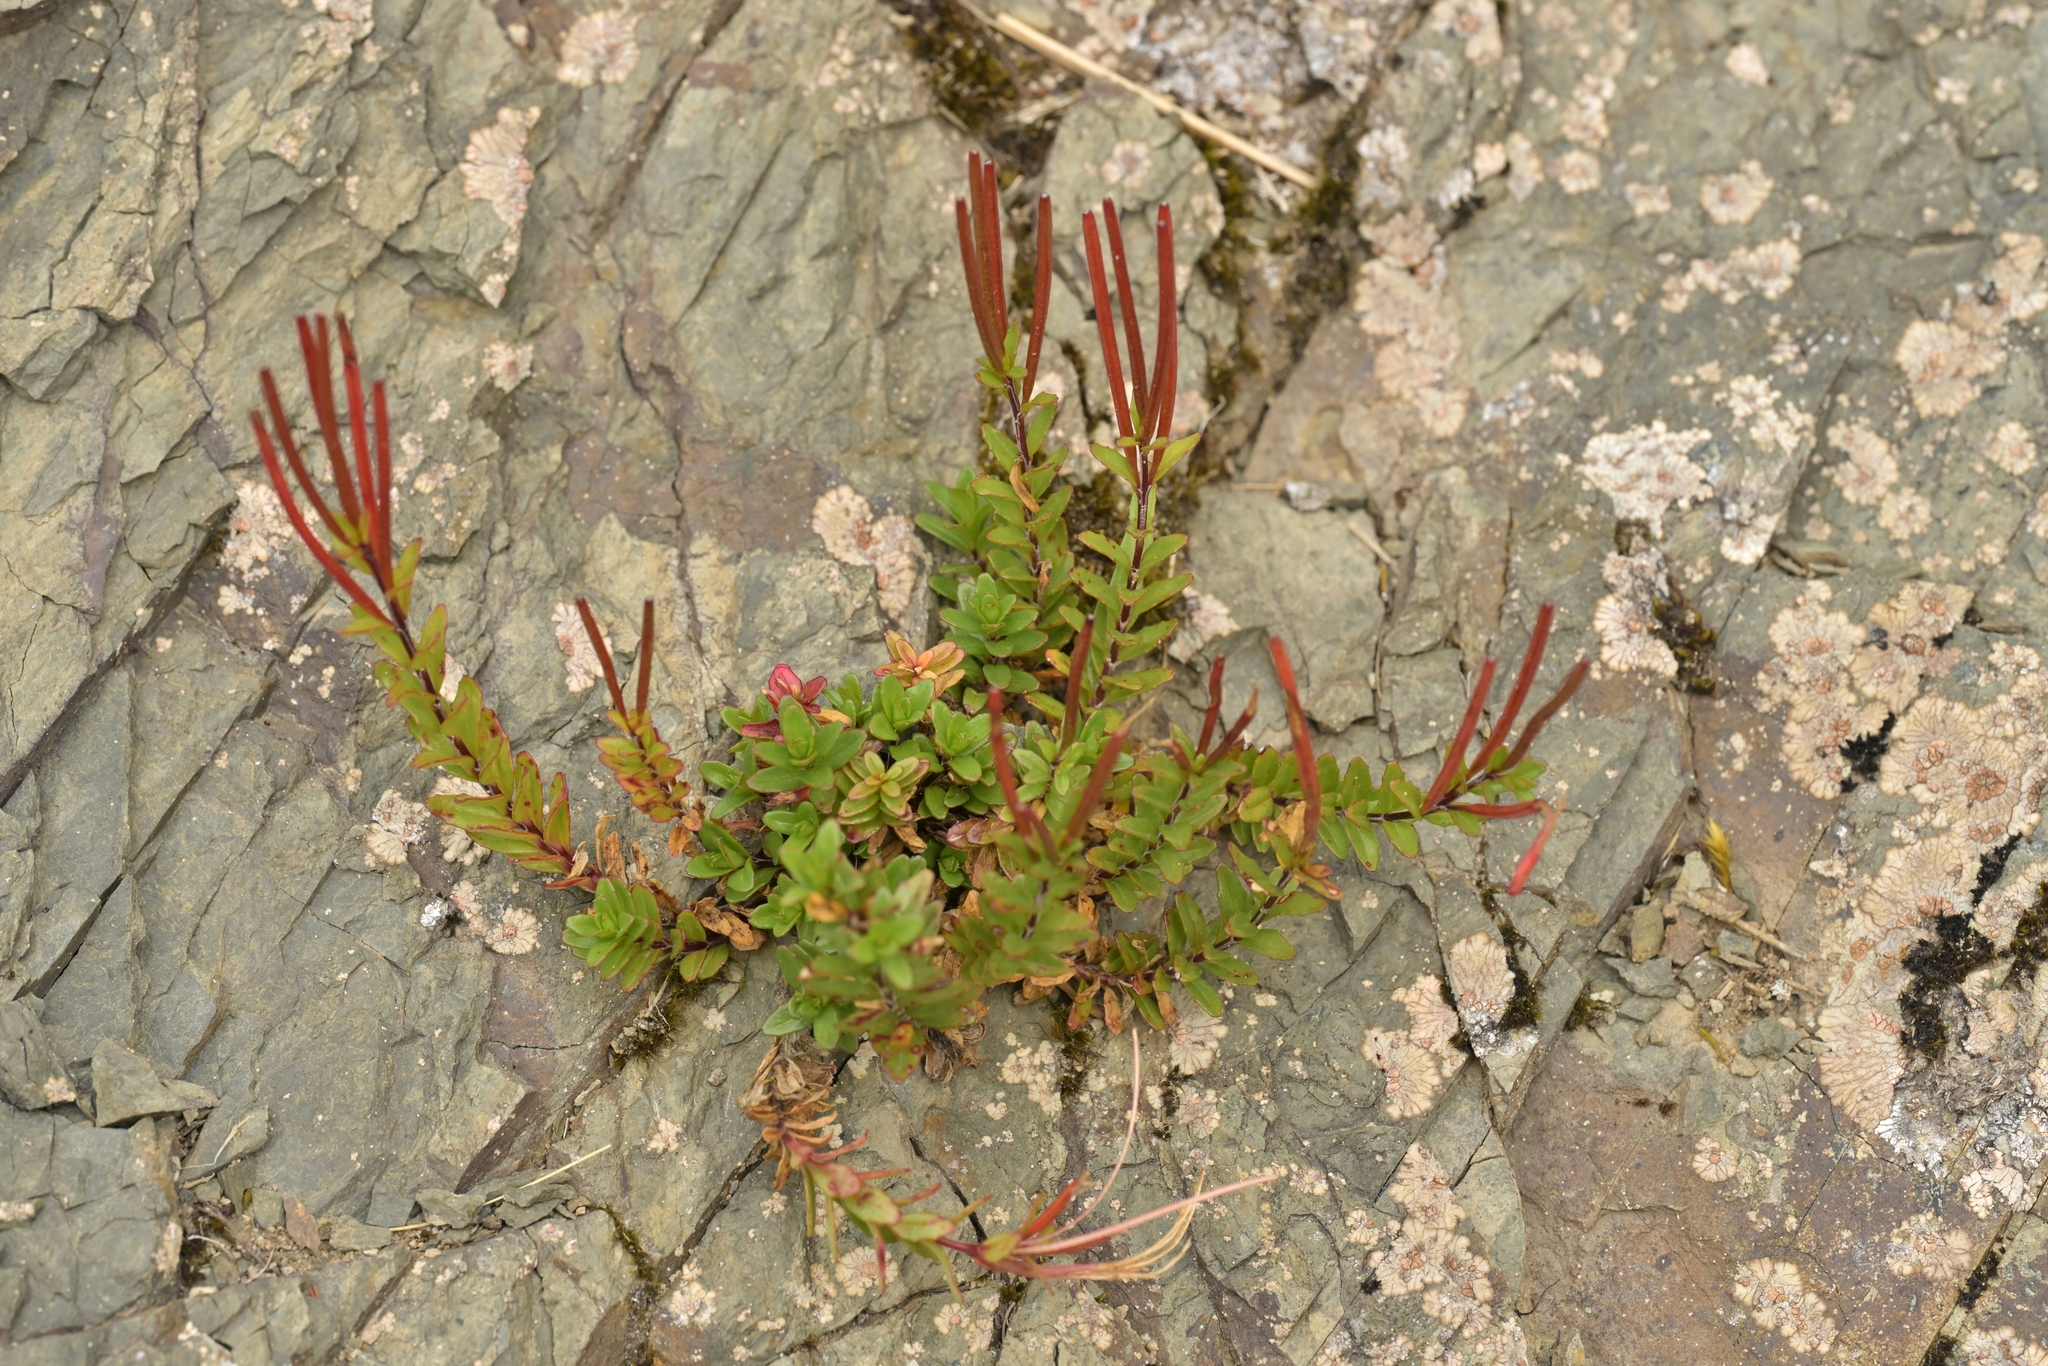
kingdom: Plantae
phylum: Tracheophyta
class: Magnoliopsida
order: Myrtales
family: Onagraceae
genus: Epilobium
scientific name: Epilobium glabellum
